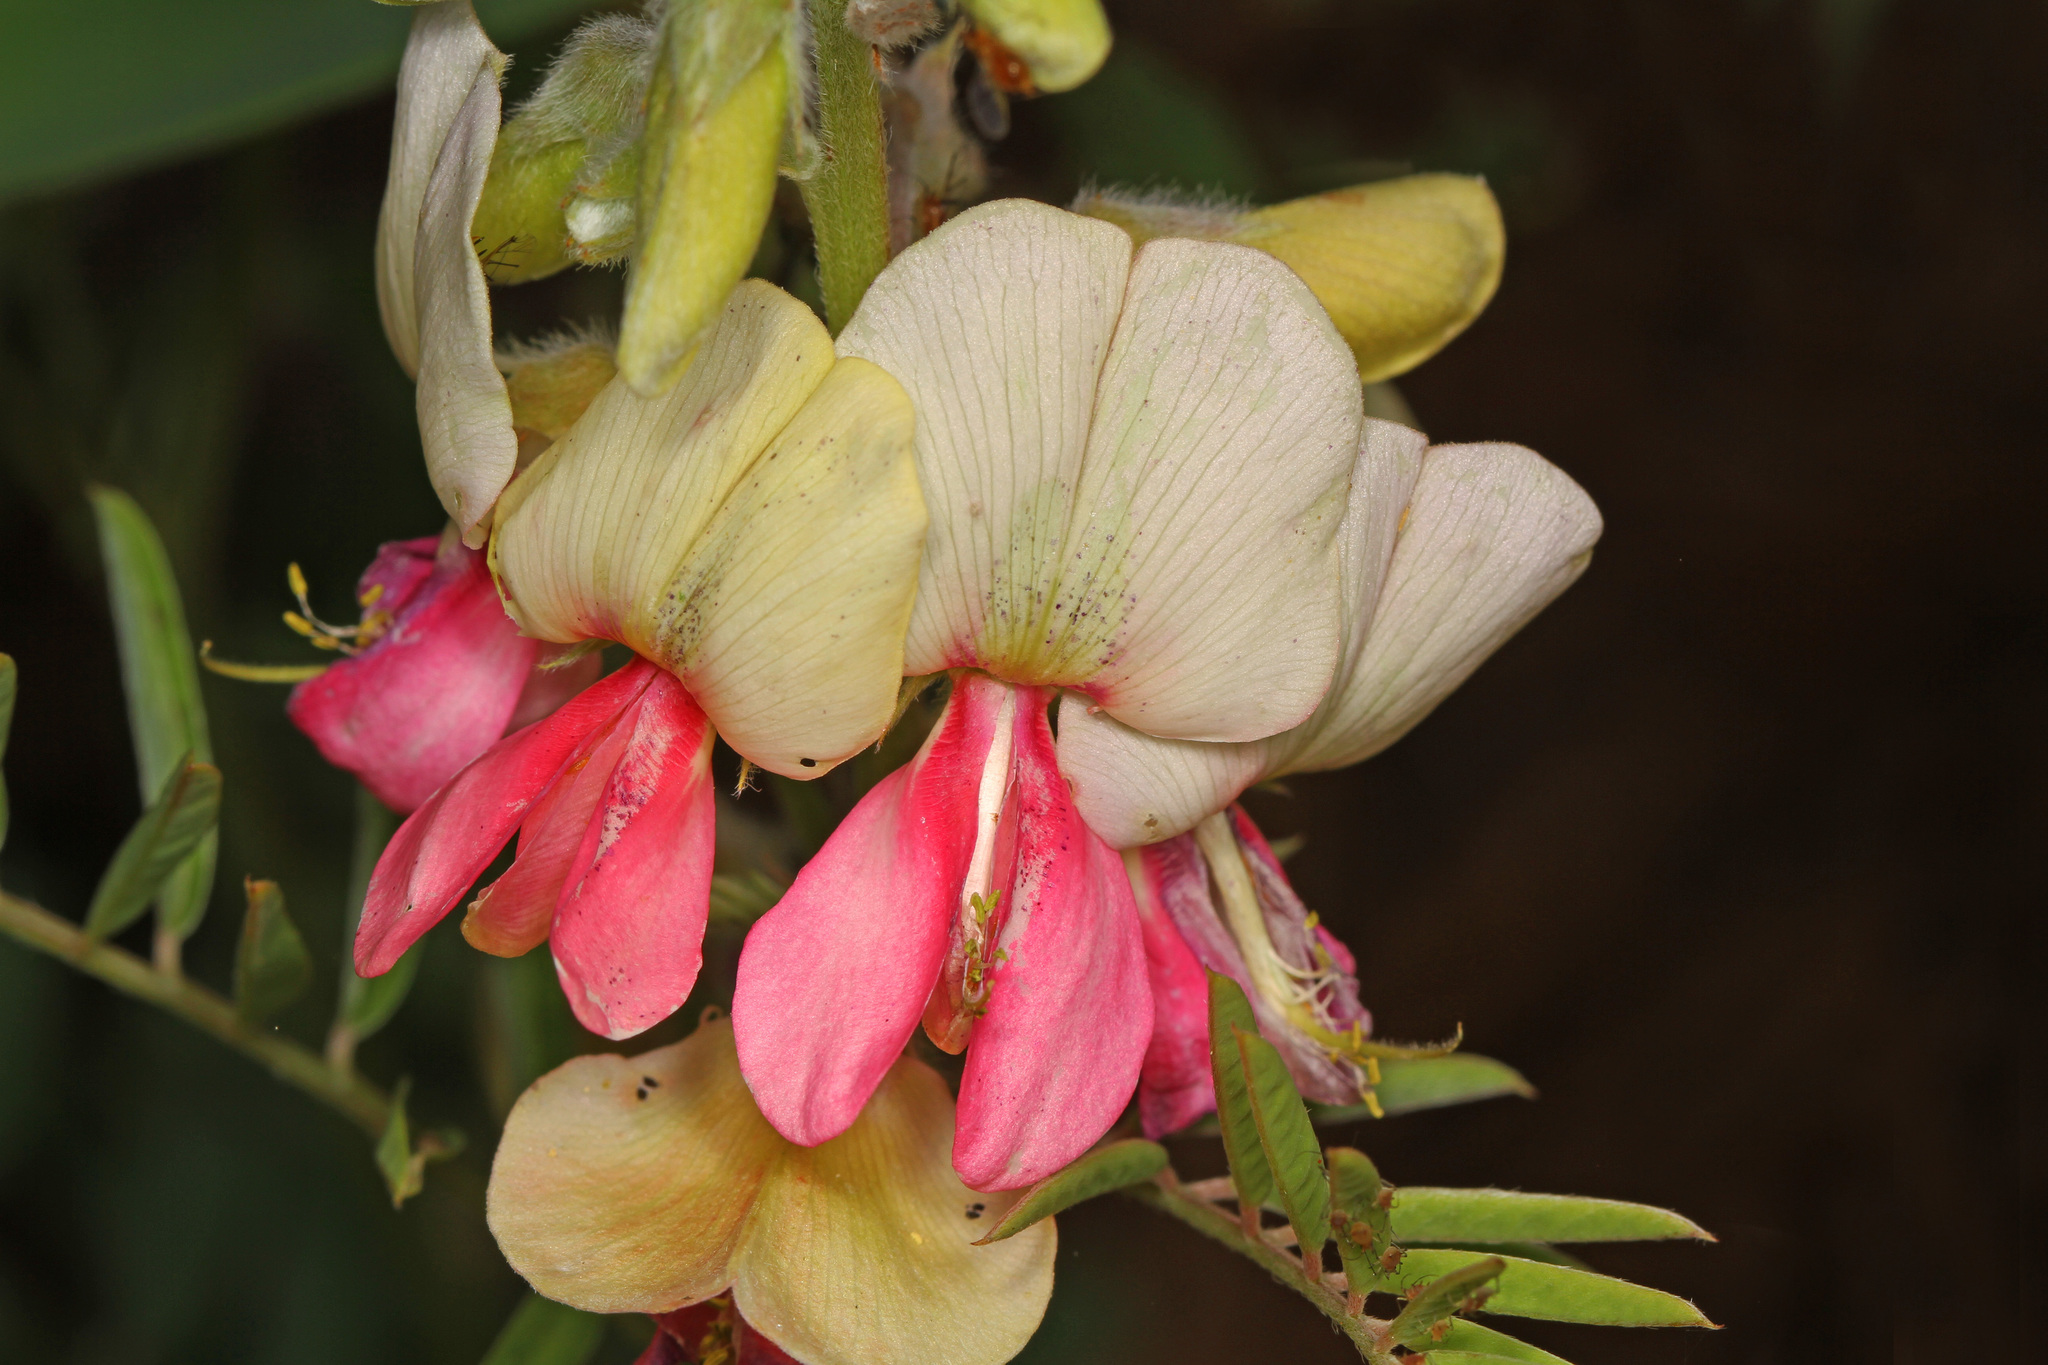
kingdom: Plantae
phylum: Tracheophyta
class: Magnoliopsida
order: Fabales
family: Fabaceae
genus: Tephrosia
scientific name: Tephrosia virginiana
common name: Rabbit-pea
